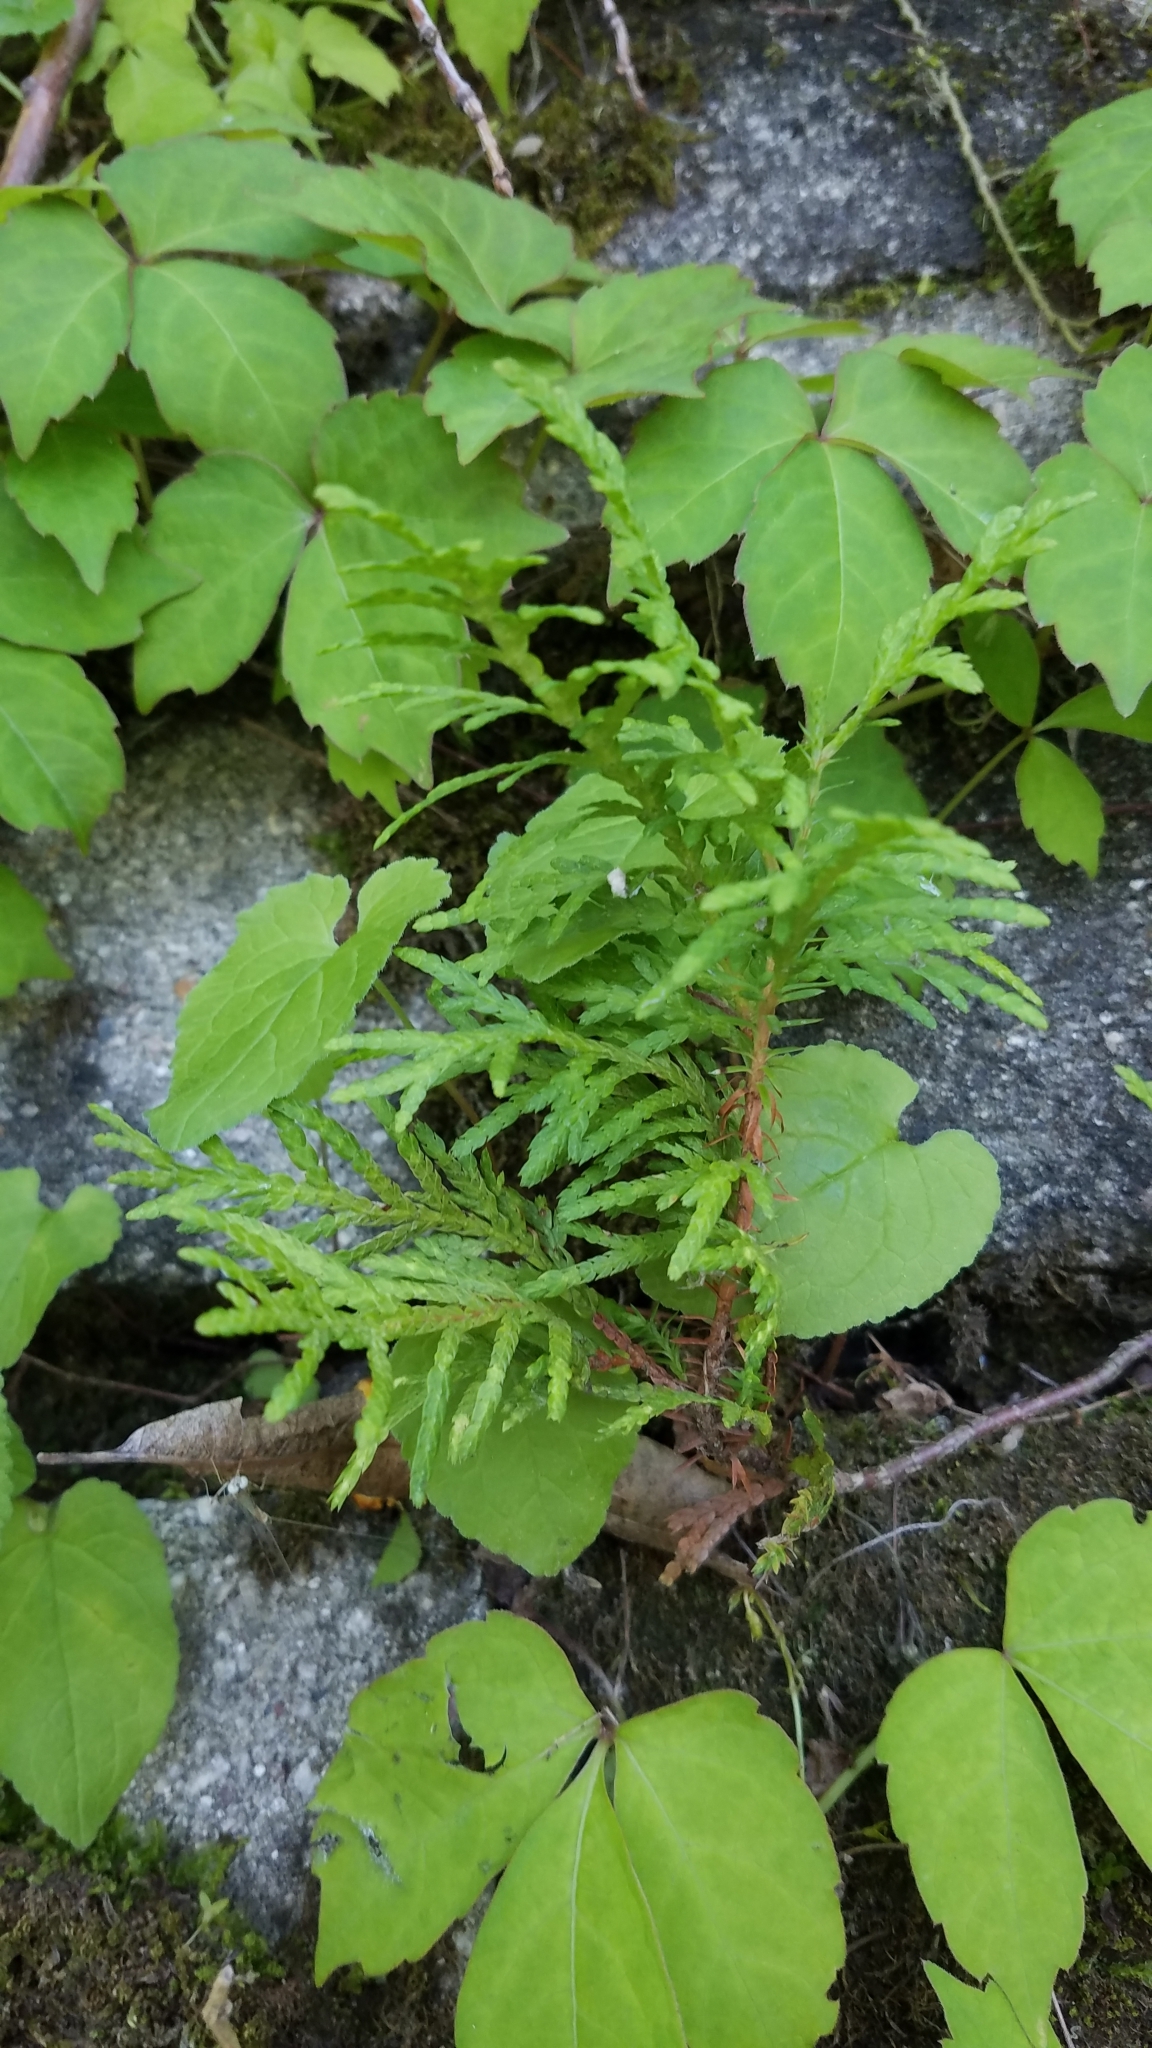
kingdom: Plantae
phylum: Tracheophyta
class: Pinopsida
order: Pinales
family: Cupressaceae
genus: Thuja
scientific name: Thuja occidentalis
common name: Northern white-cedar
